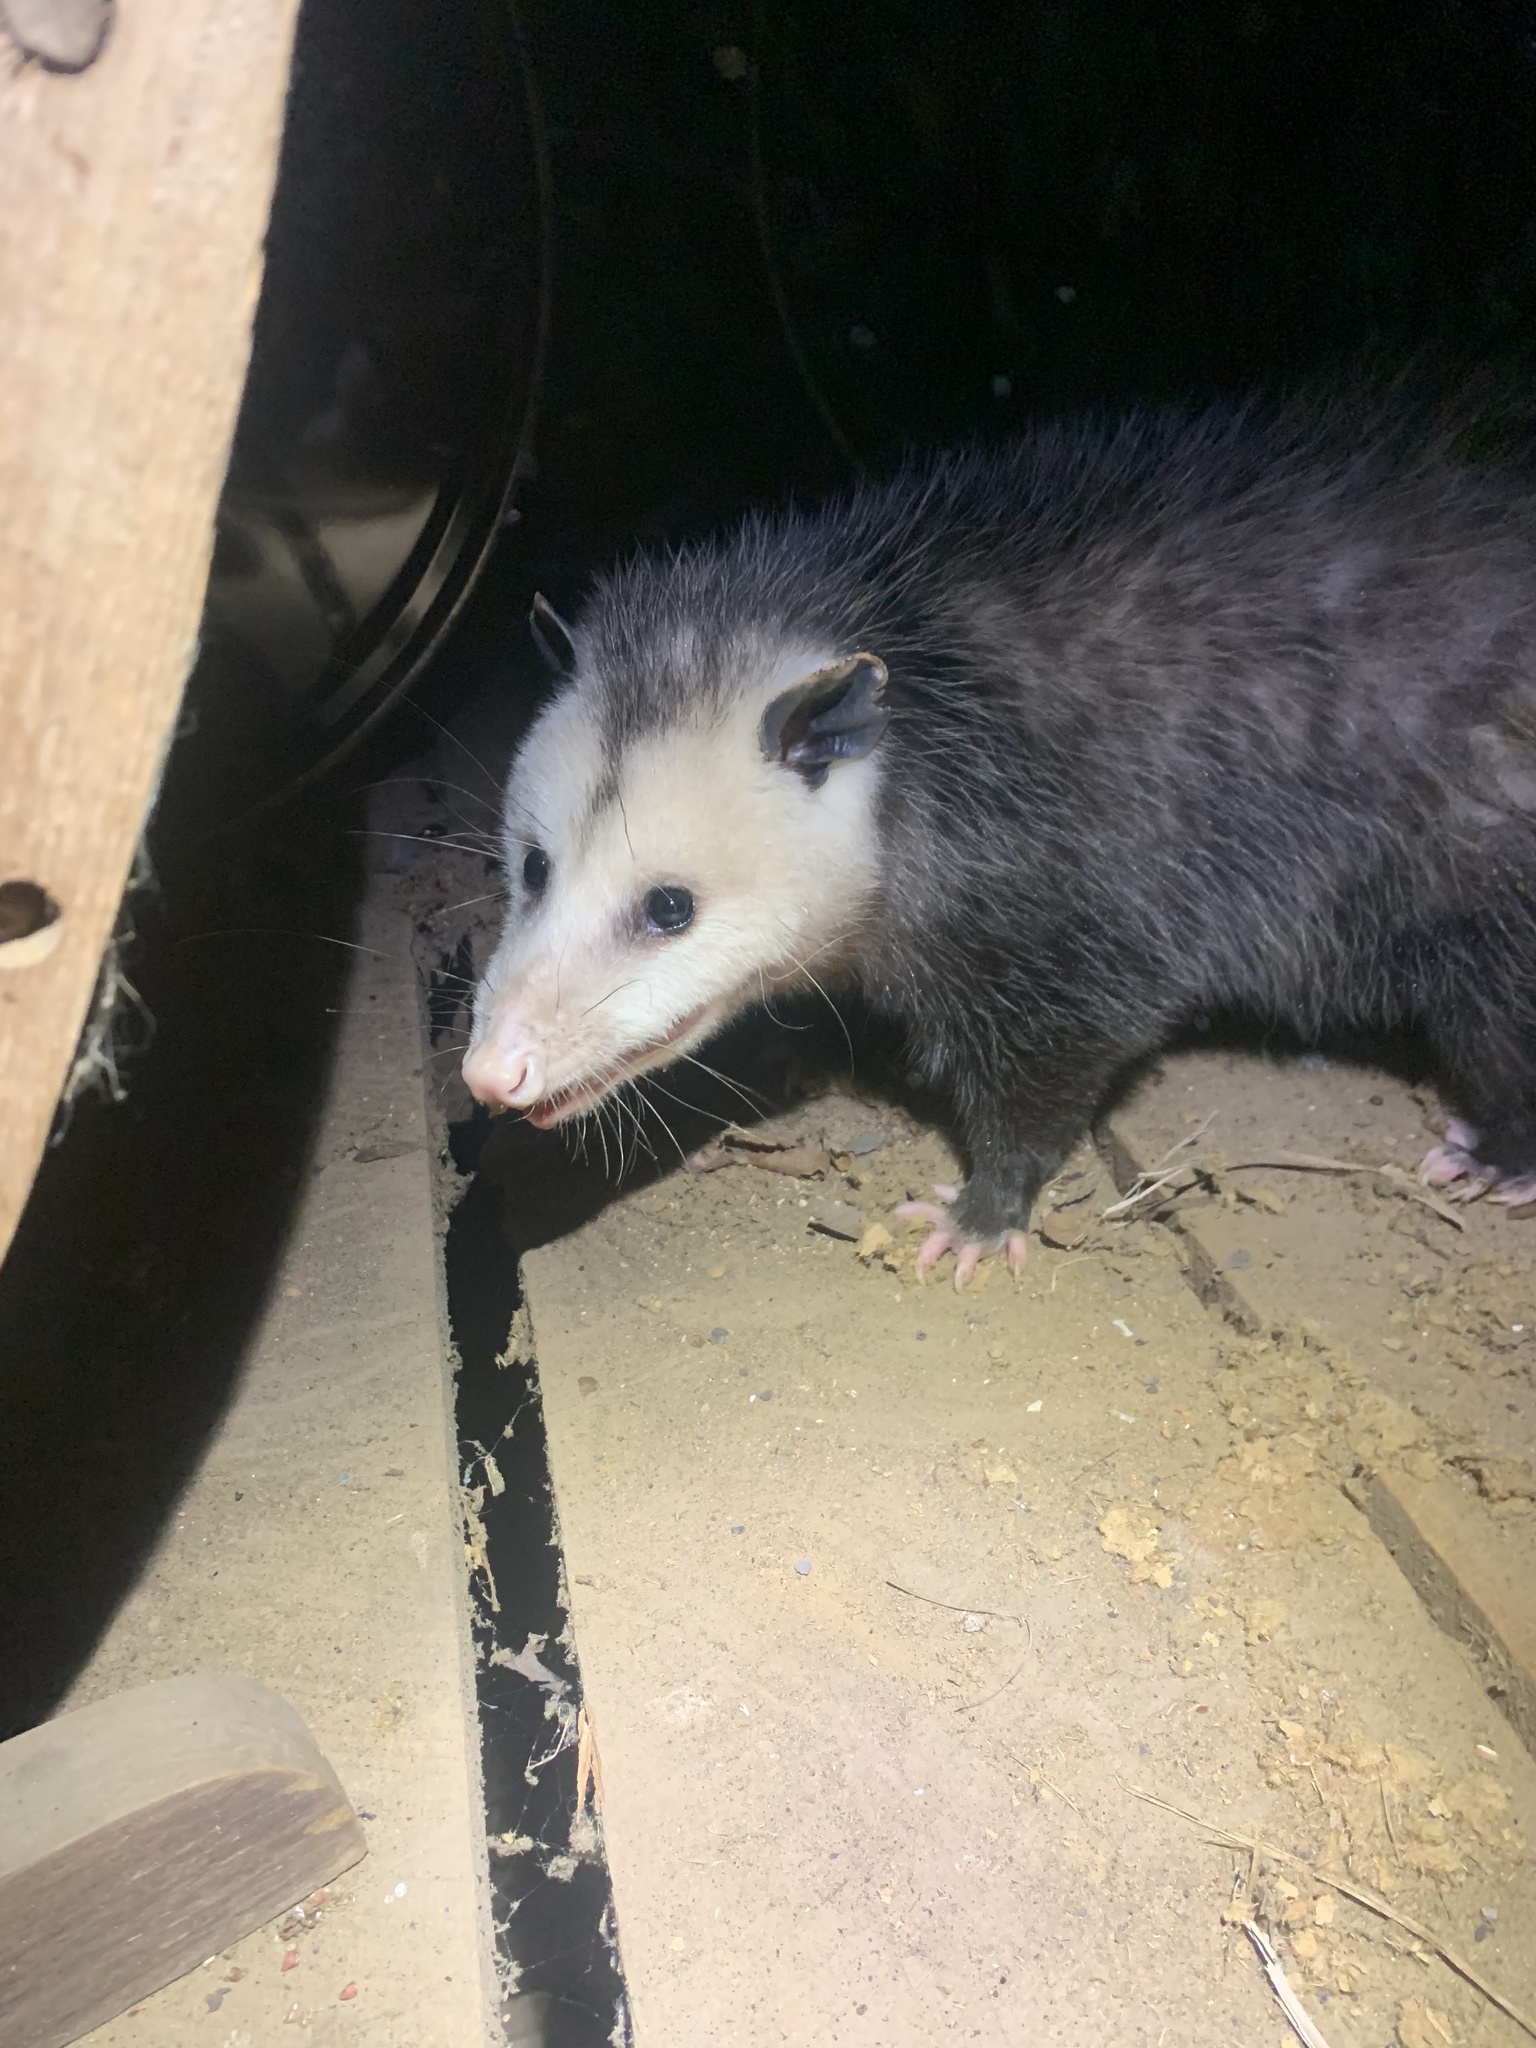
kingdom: Animalia
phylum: Chordata
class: Mammalia
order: Didelphimorphia
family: Didelphidae
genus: Didelphis
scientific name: Didelphis virginiana
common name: Virginia opossum
